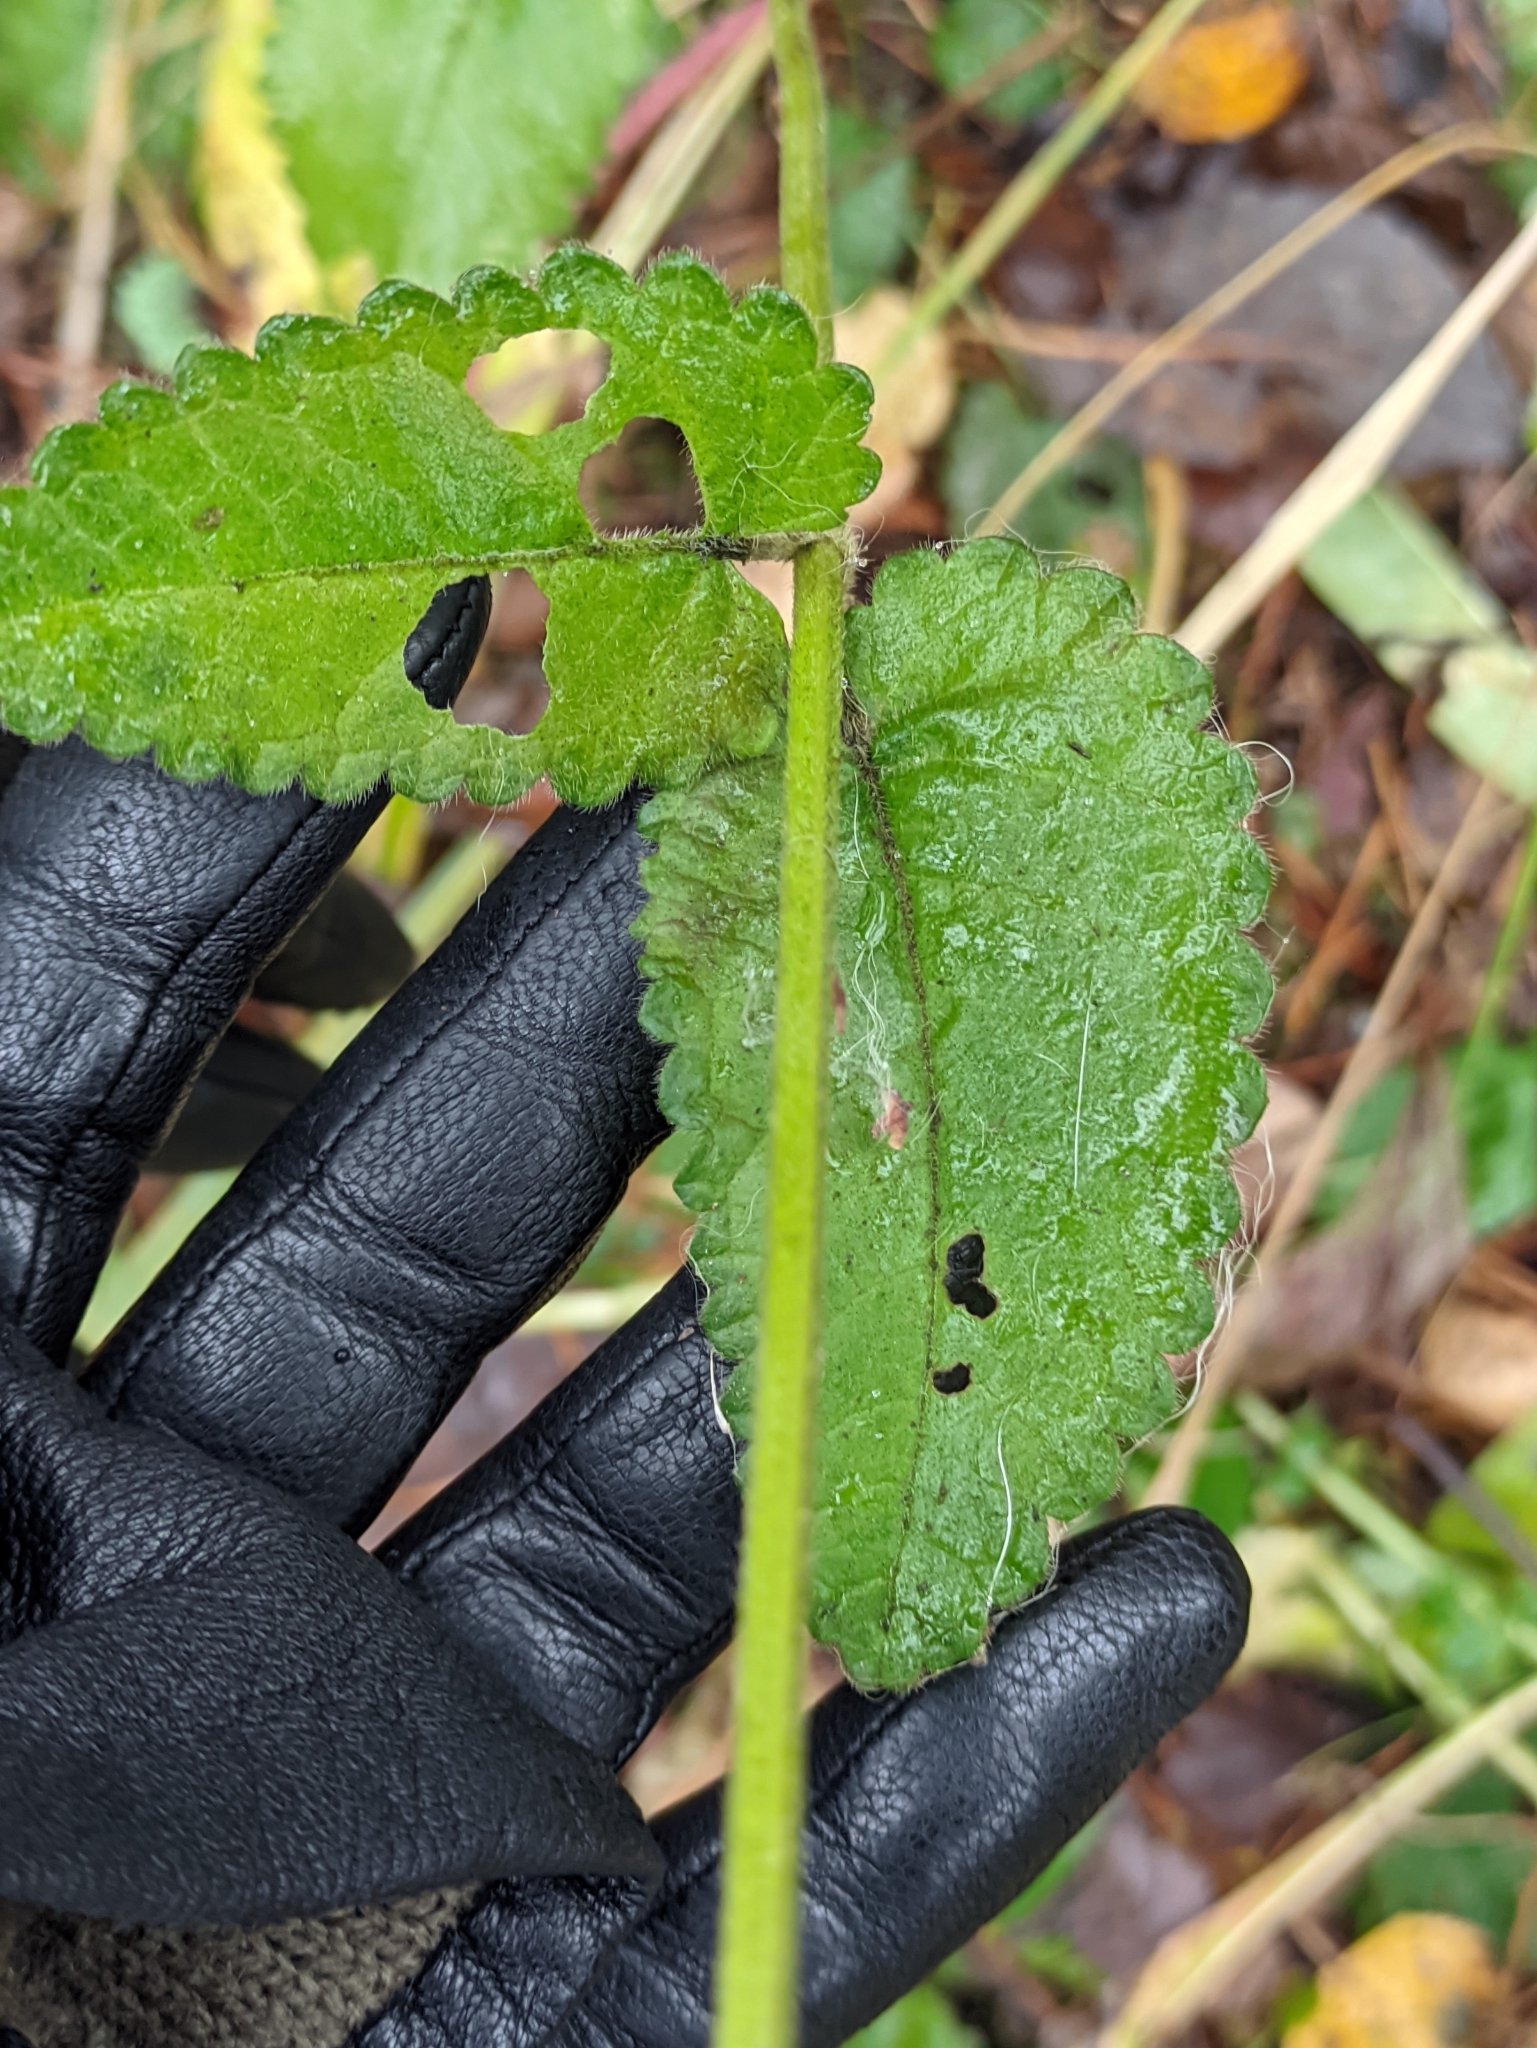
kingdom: Plantae
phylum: Tracheophyta
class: Magnoliopsida
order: Lamiales
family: Lamiaceae
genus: Betonica
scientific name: Betonica officinalis
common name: Bishop's-wort
